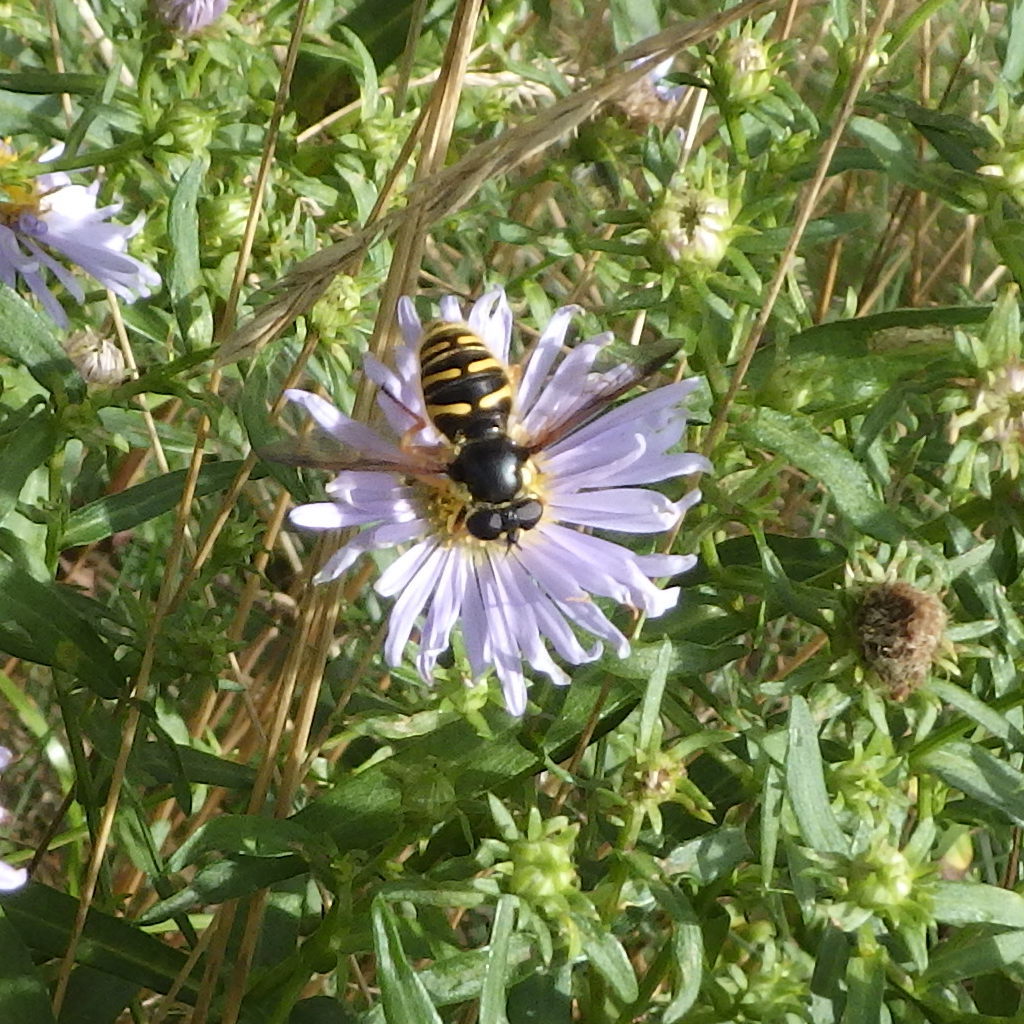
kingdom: Animalia
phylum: Arthropoda
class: Insecta
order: Diptera
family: Syrphidae
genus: Sericomyia
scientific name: Sericomyia chrysotoxoides
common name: Oblique-banded pond fly
